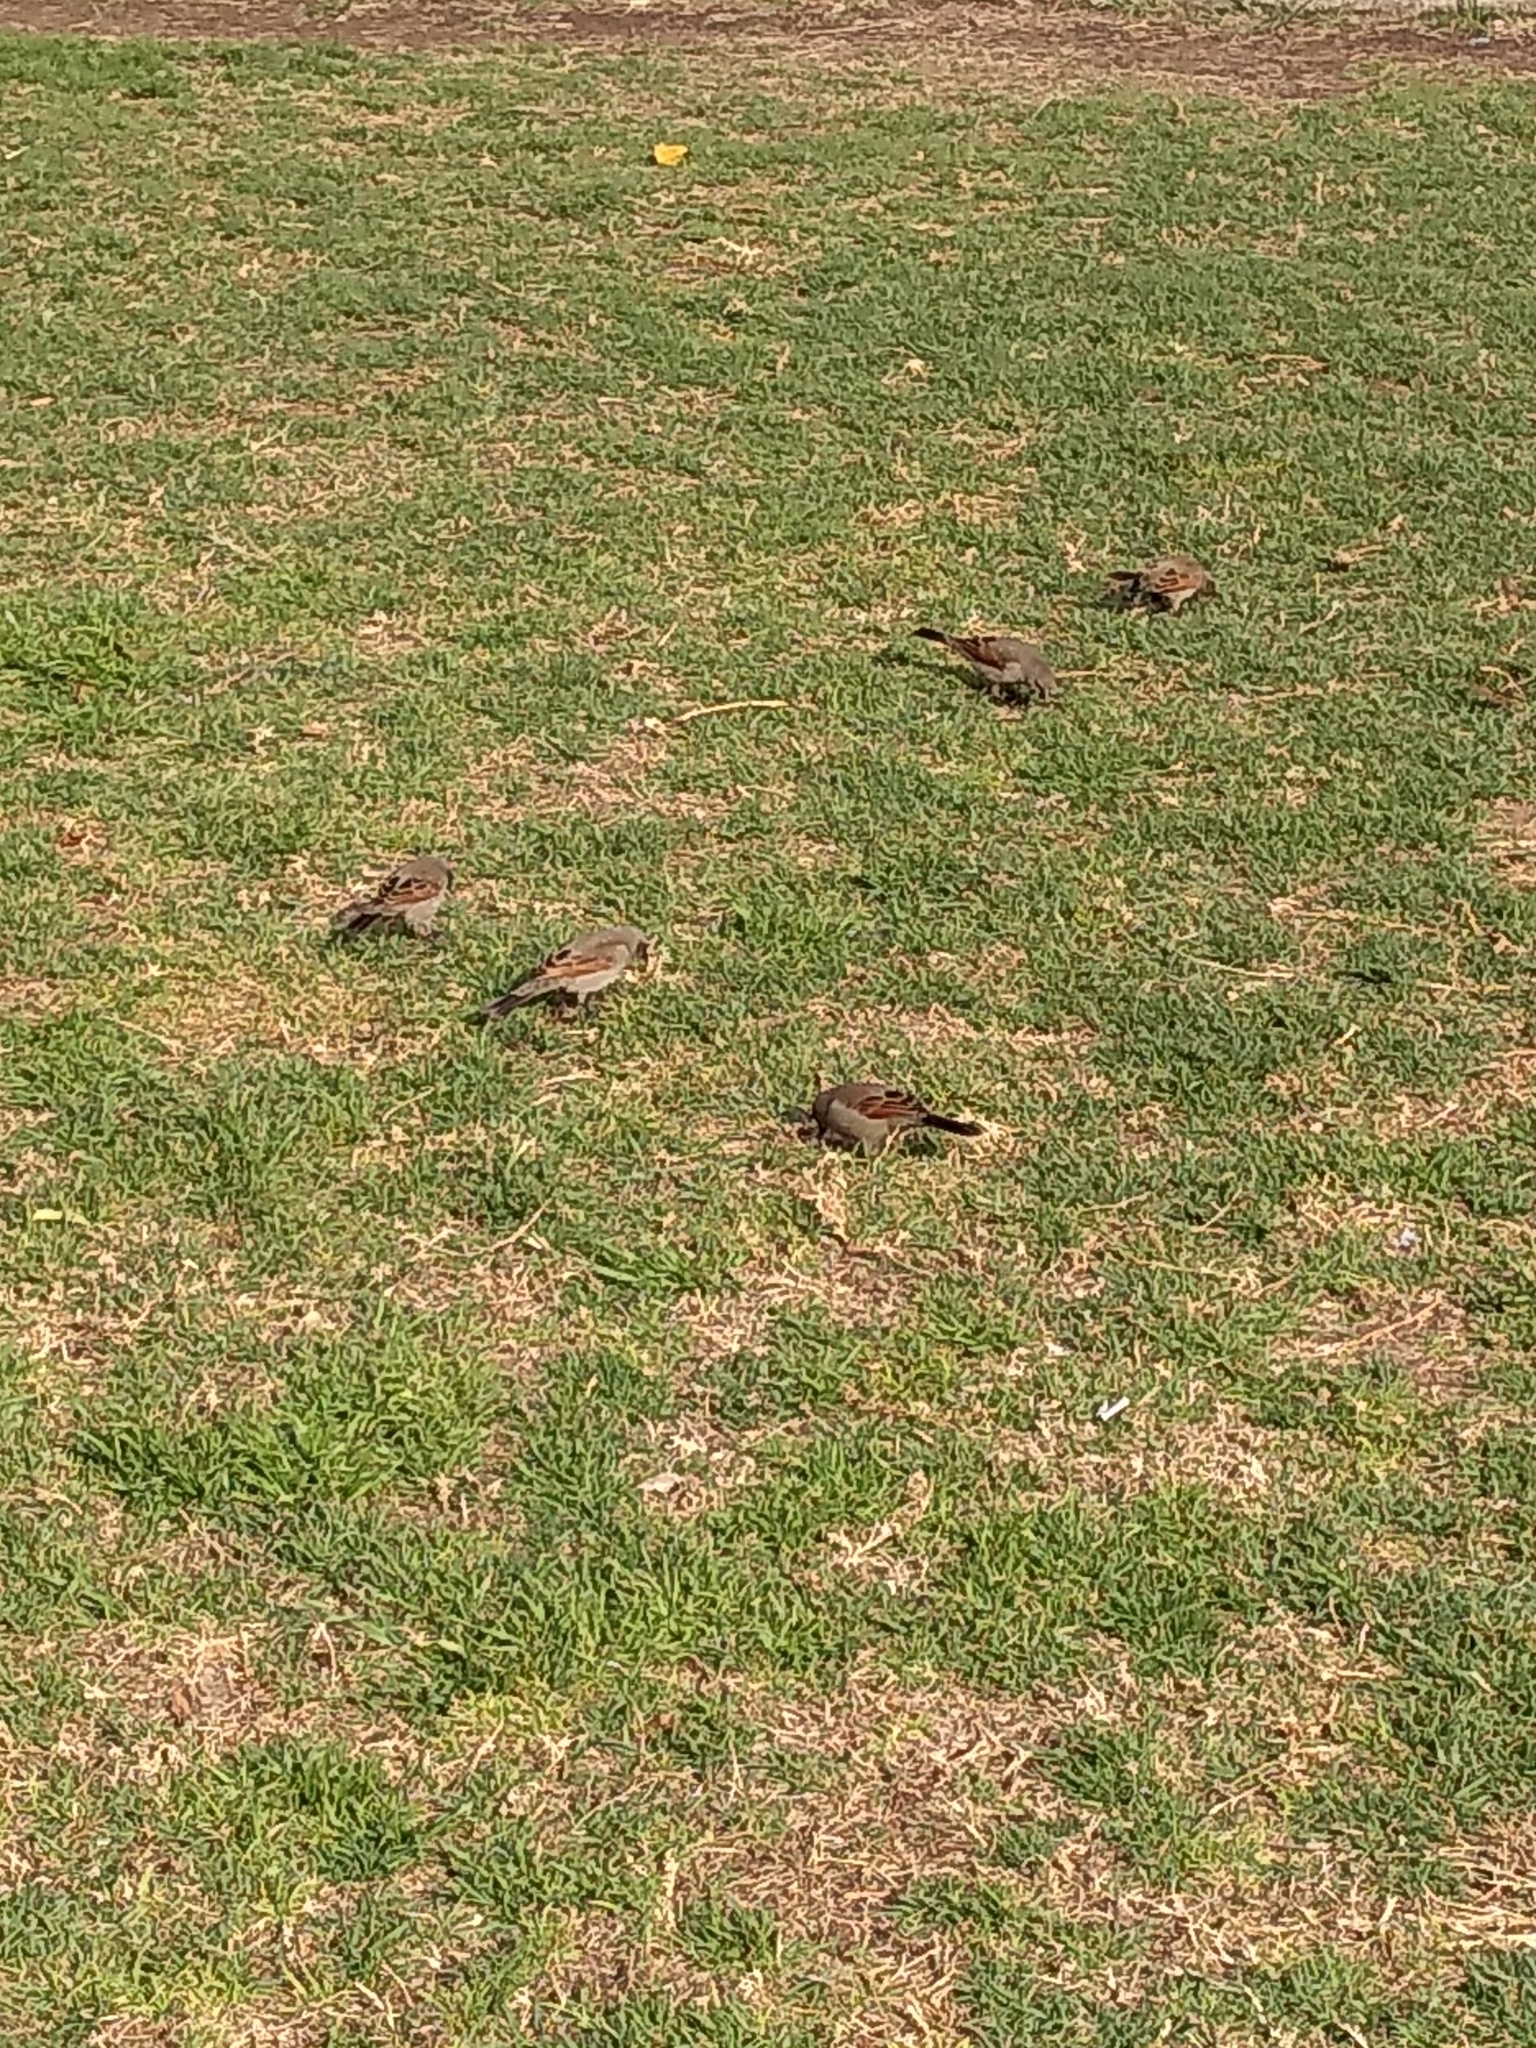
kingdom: Animalia
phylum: Chordata
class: Aves
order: Passeriformes
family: Icteridae
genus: Agelaioides
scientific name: Agelaioides badius
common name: Baywing
